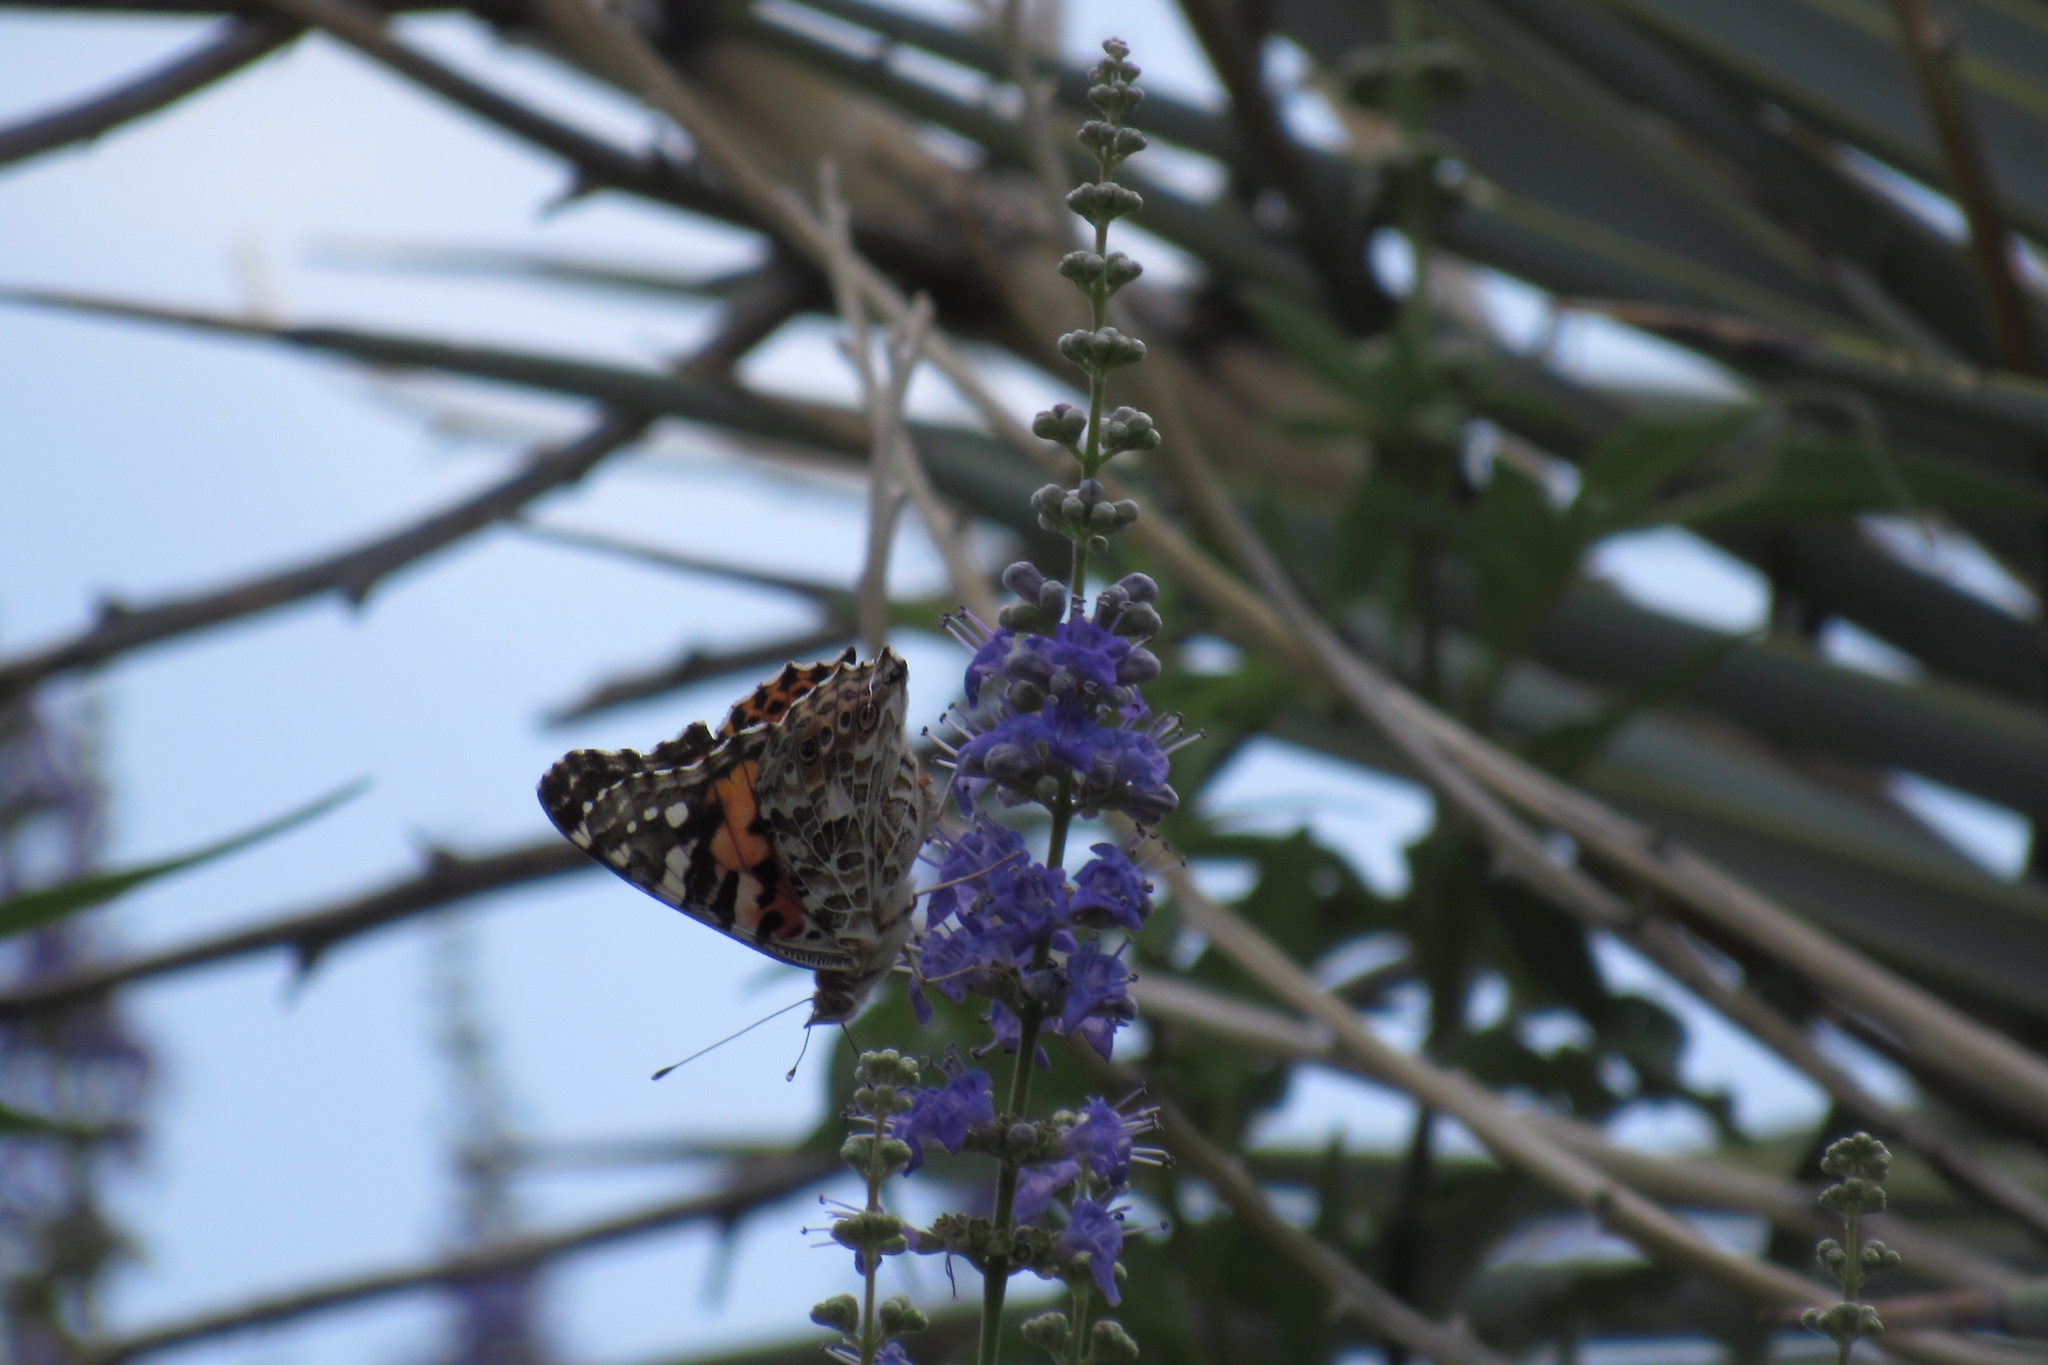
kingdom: Animalia
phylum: Arthropoda
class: Insecta
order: Lepidoptera
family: Nymphalidae
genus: Vanessa
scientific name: Vanessa cardui
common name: Painted lady
